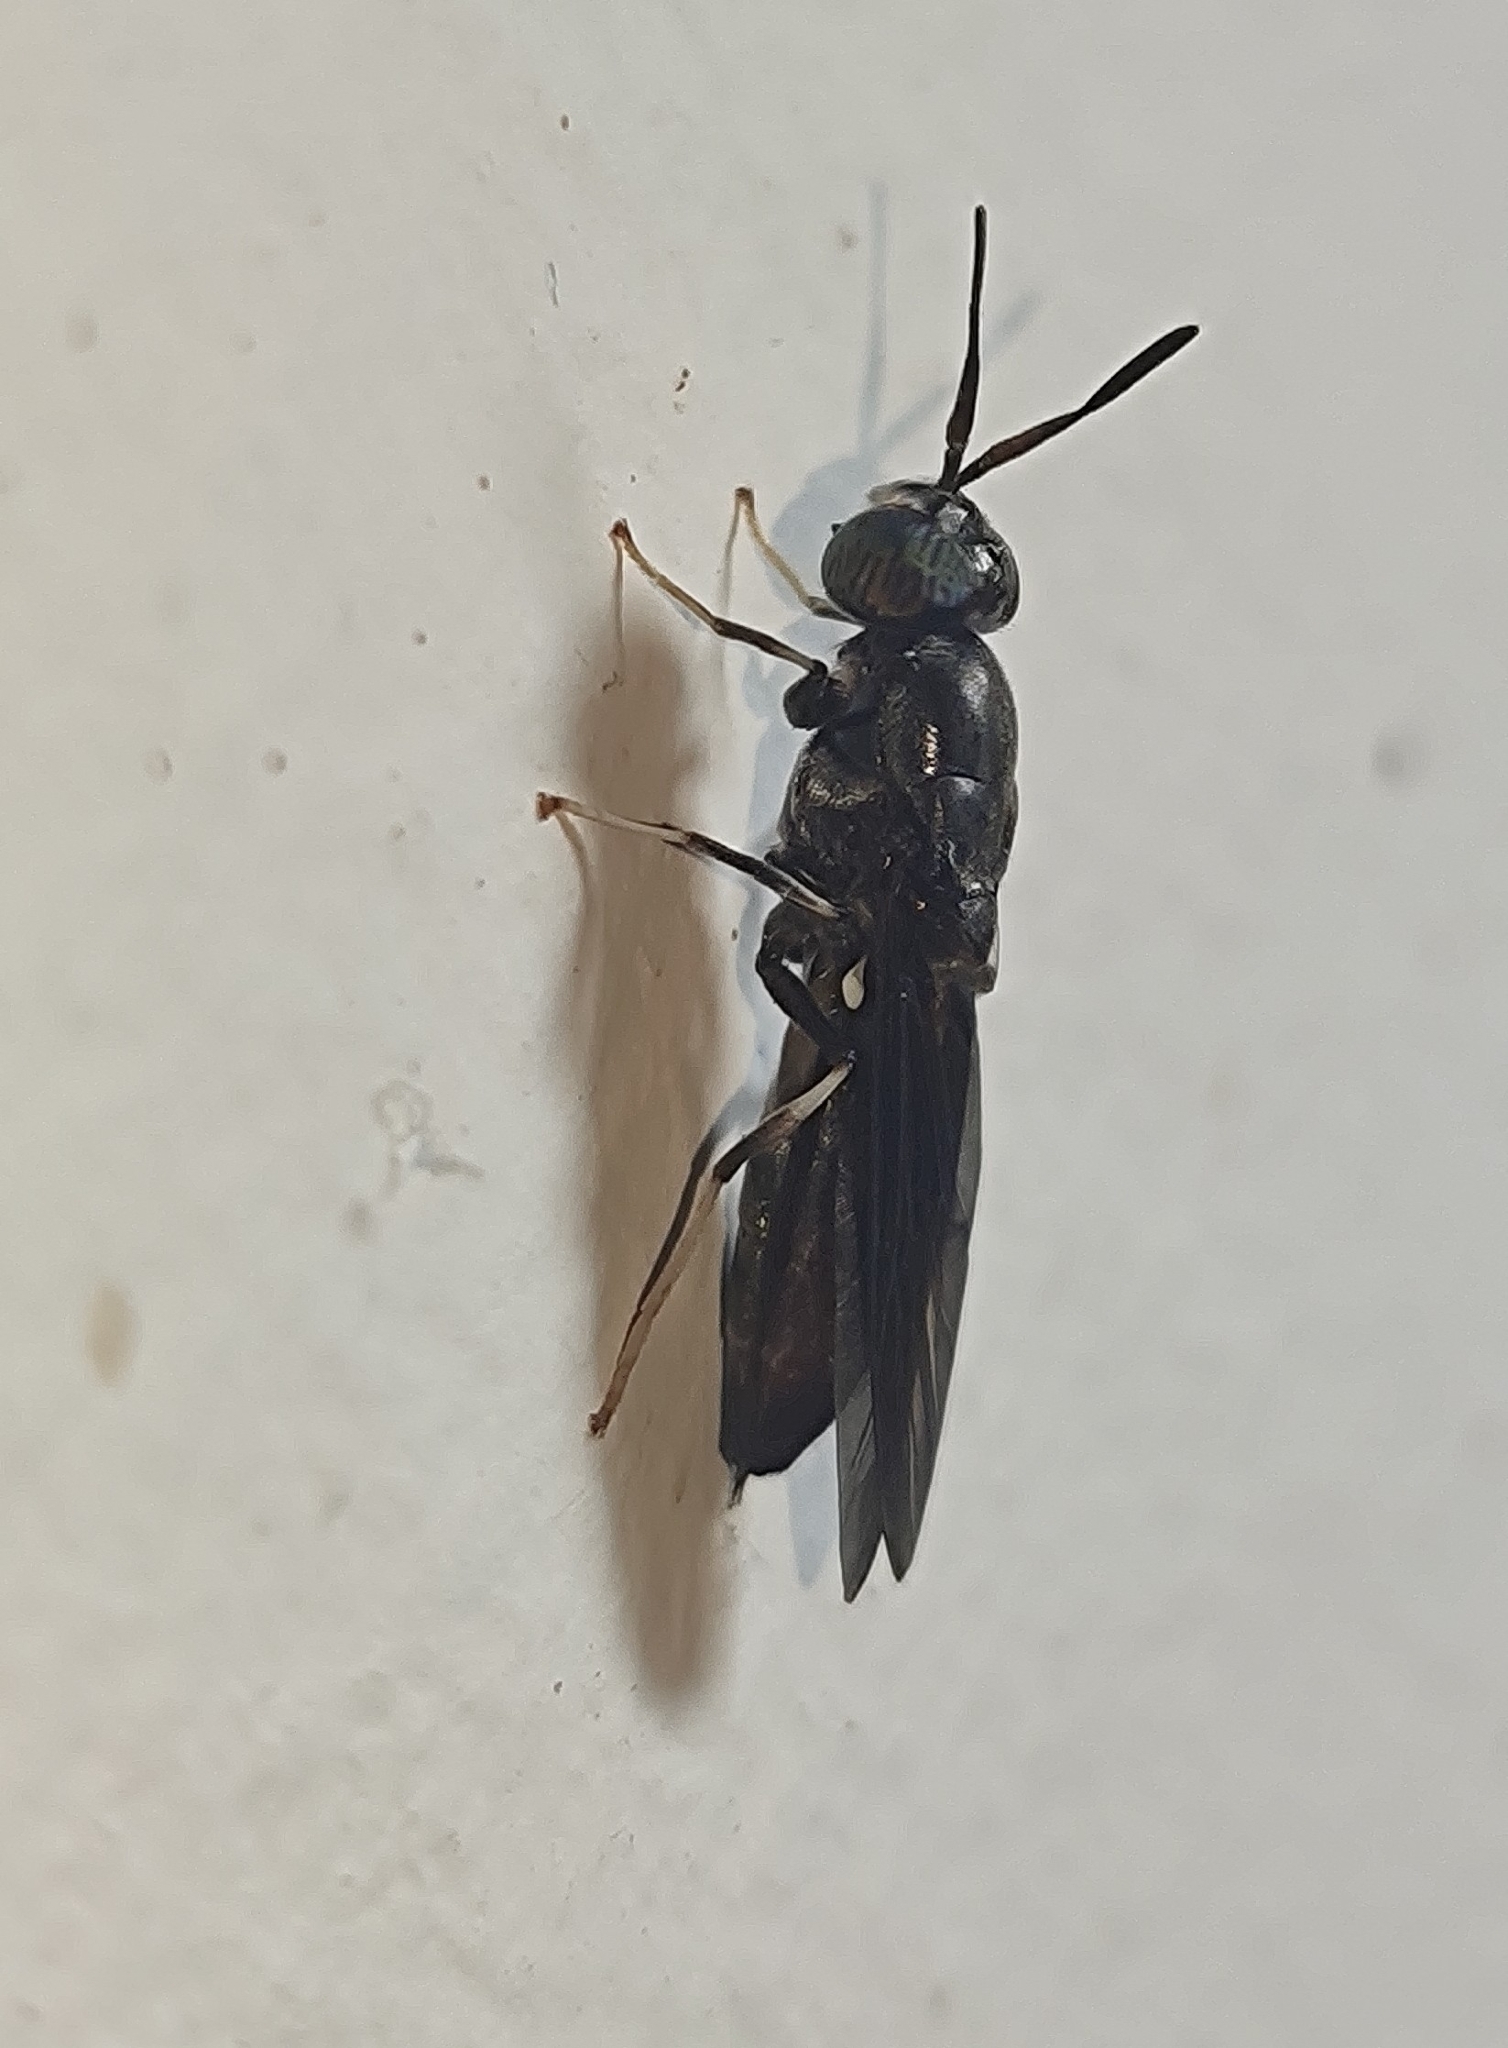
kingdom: Animalia
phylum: Arthropoda
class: Insecta
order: Diptera
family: Stratiomyidae
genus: Hermetia
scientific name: Hermetia illucens
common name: Black soldier fly
